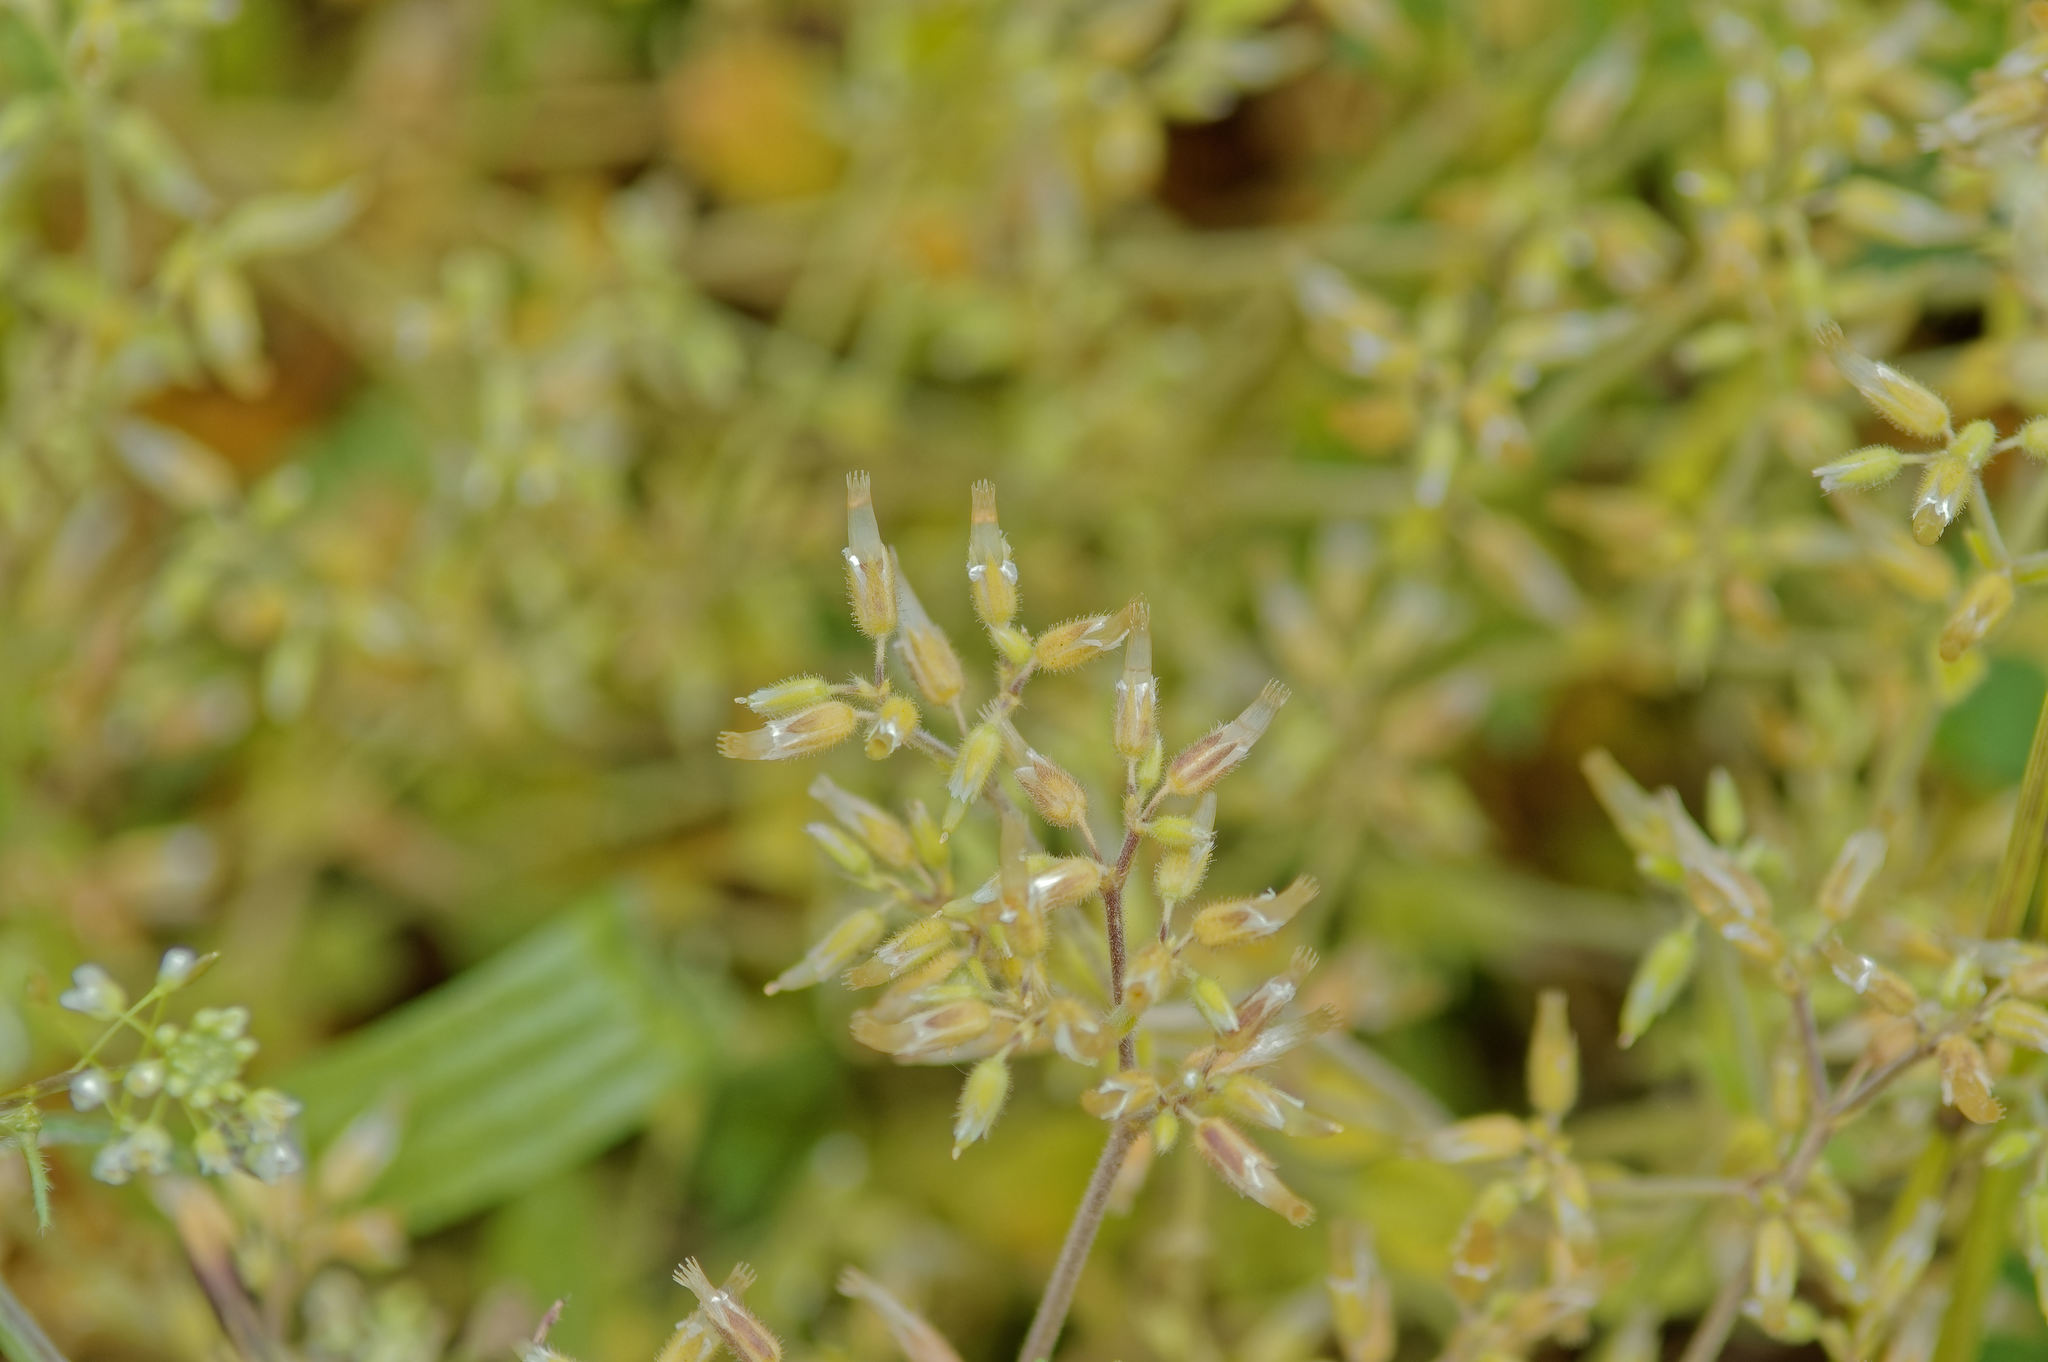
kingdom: Plantae
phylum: Tracheophyta
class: Magnoliopsida
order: Caryophyllales
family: Caryophyllaceae
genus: Cerastium
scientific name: Cerastium glomeratum
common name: Sticky chickweed
